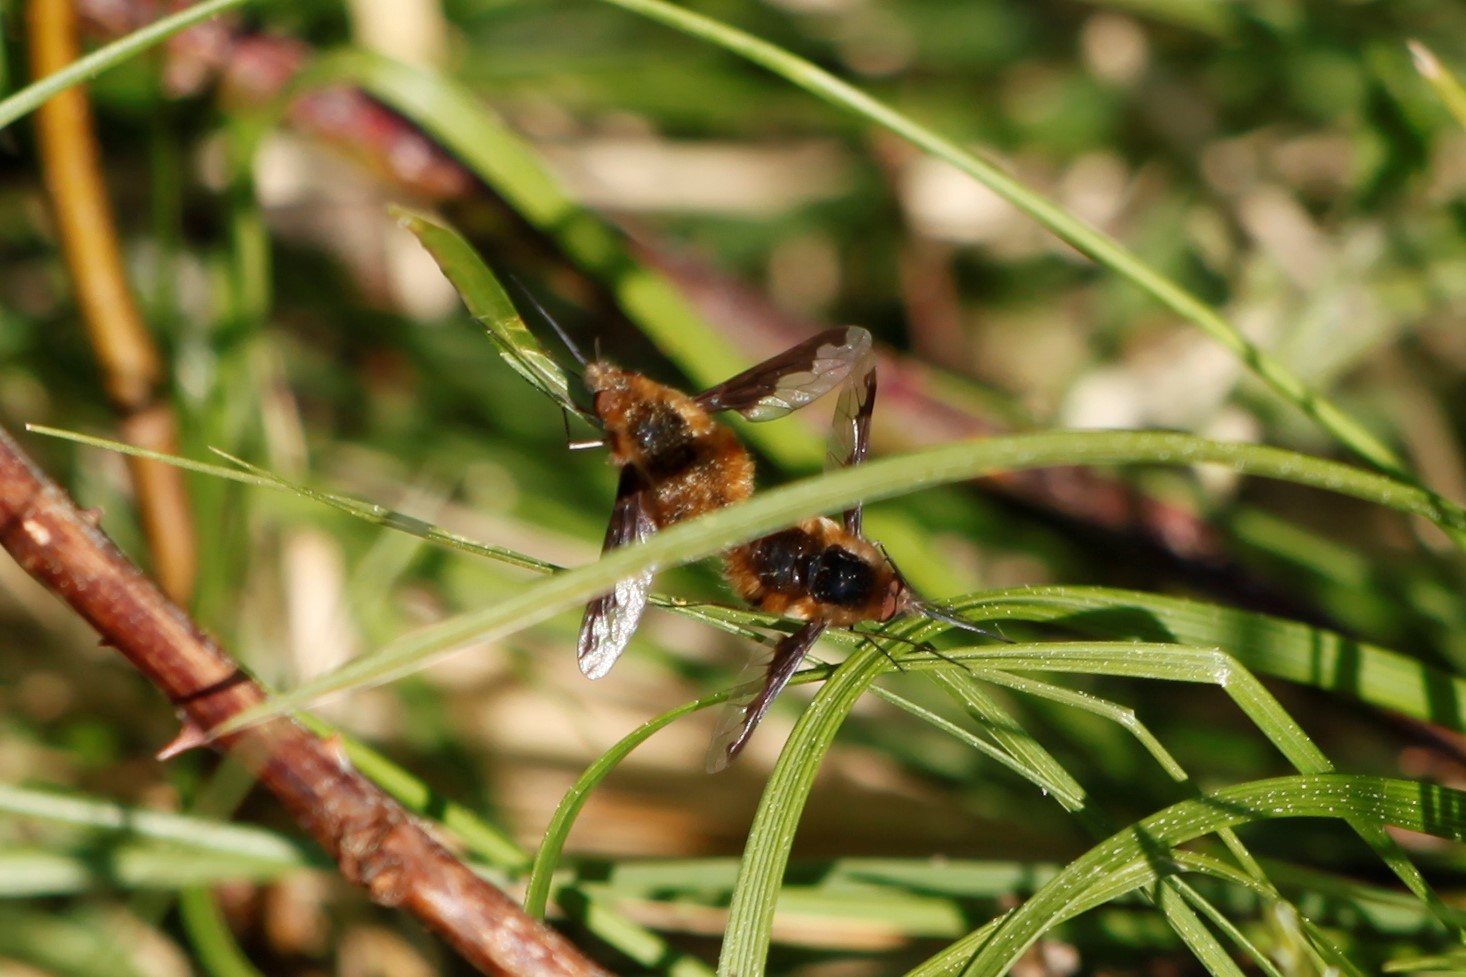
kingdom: Animalia
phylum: Arthropoda
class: Insecta
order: Diptera
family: Bombyliidae
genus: Bombylius
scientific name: Bombylius major
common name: Bee fly
